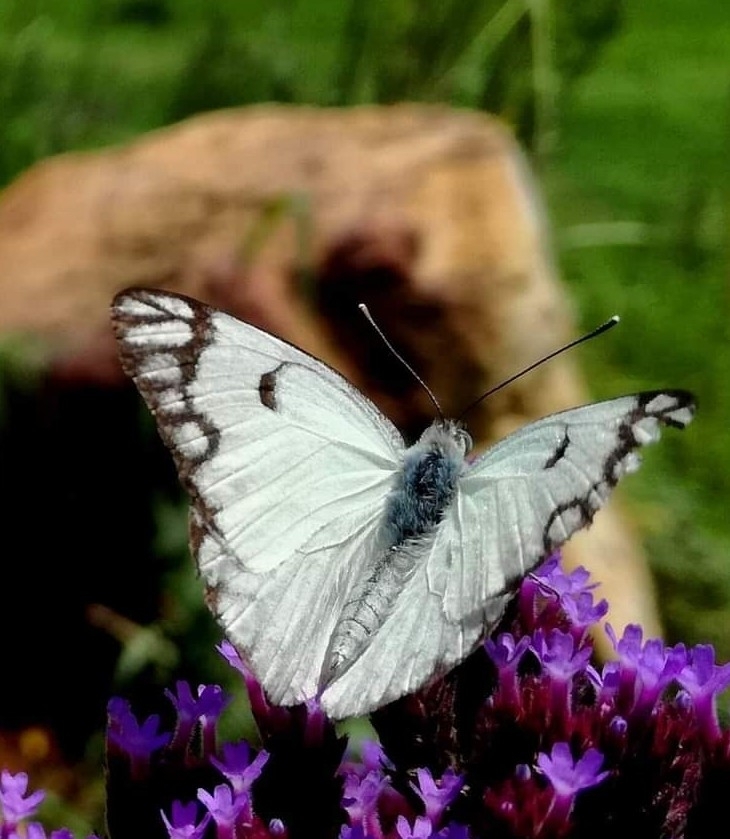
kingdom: Animalia
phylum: Arthropoda
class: Insecta
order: Lepidoptera
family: Pieridae
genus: Belenois
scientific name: Belenois aurota
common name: Brown-veined white
